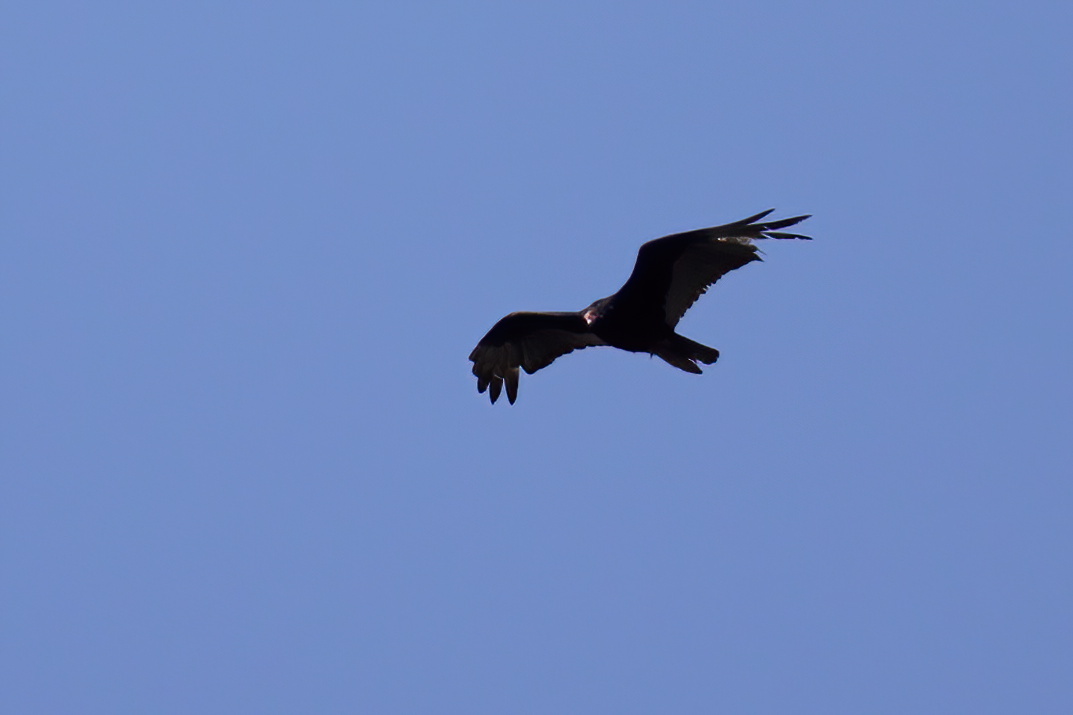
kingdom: Animalia
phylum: Chordata
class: Aves
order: Accipitriformes
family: Cathartidae
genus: Cathartes
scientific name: Cathartes aura
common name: Turkey vulture
